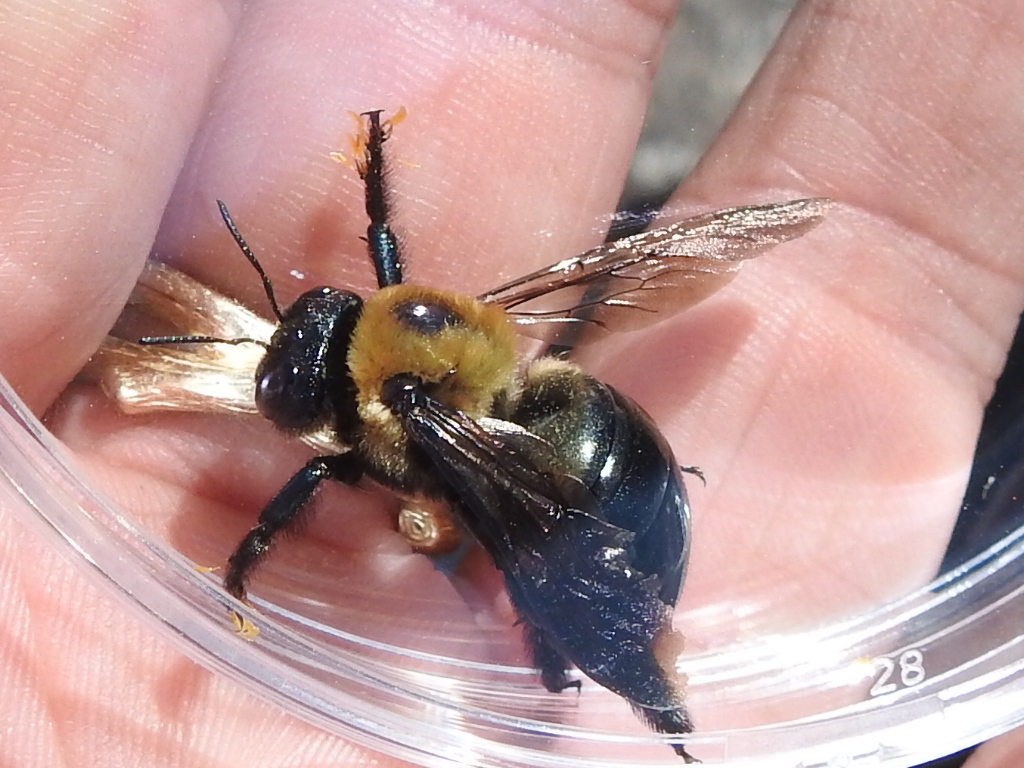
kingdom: Animalia
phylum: Arthropoda
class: Insecta
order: Hymenoptera
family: Apidae
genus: Xylocopa
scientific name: Xylocopa virginica
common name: Carpenter bee
